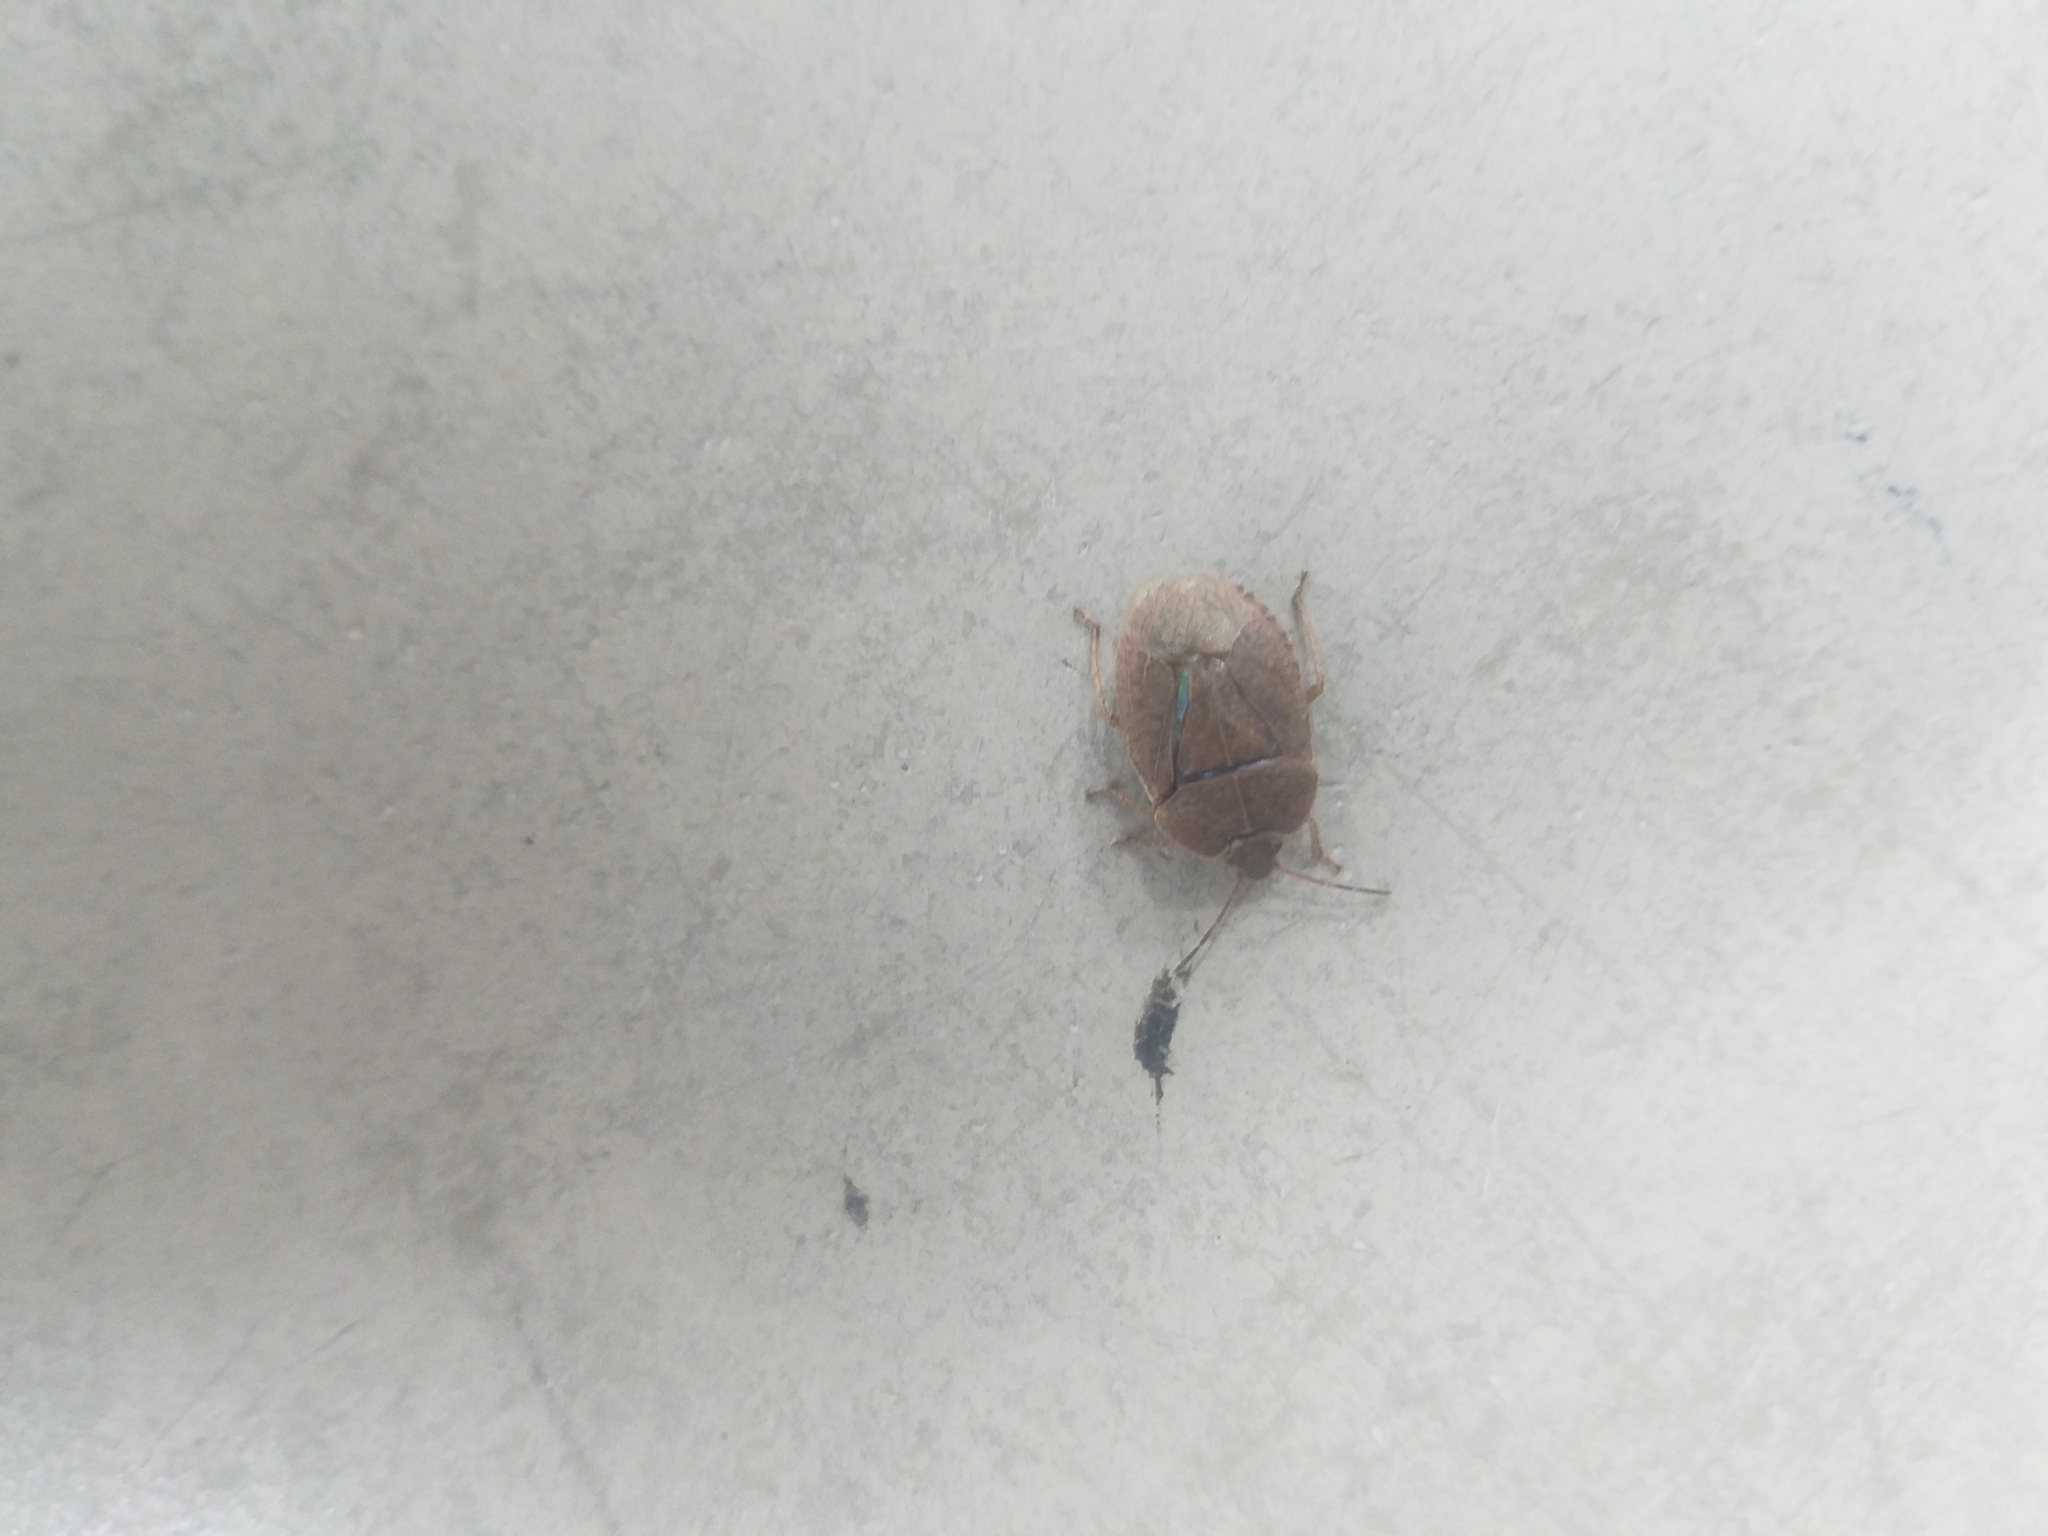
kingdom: Animalia
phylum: Arthropoda
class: Insecta
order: Hemiptera
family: Pentatomidae
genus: Menecles
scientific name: Menecles insertus
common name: Elf shoe stink bug
